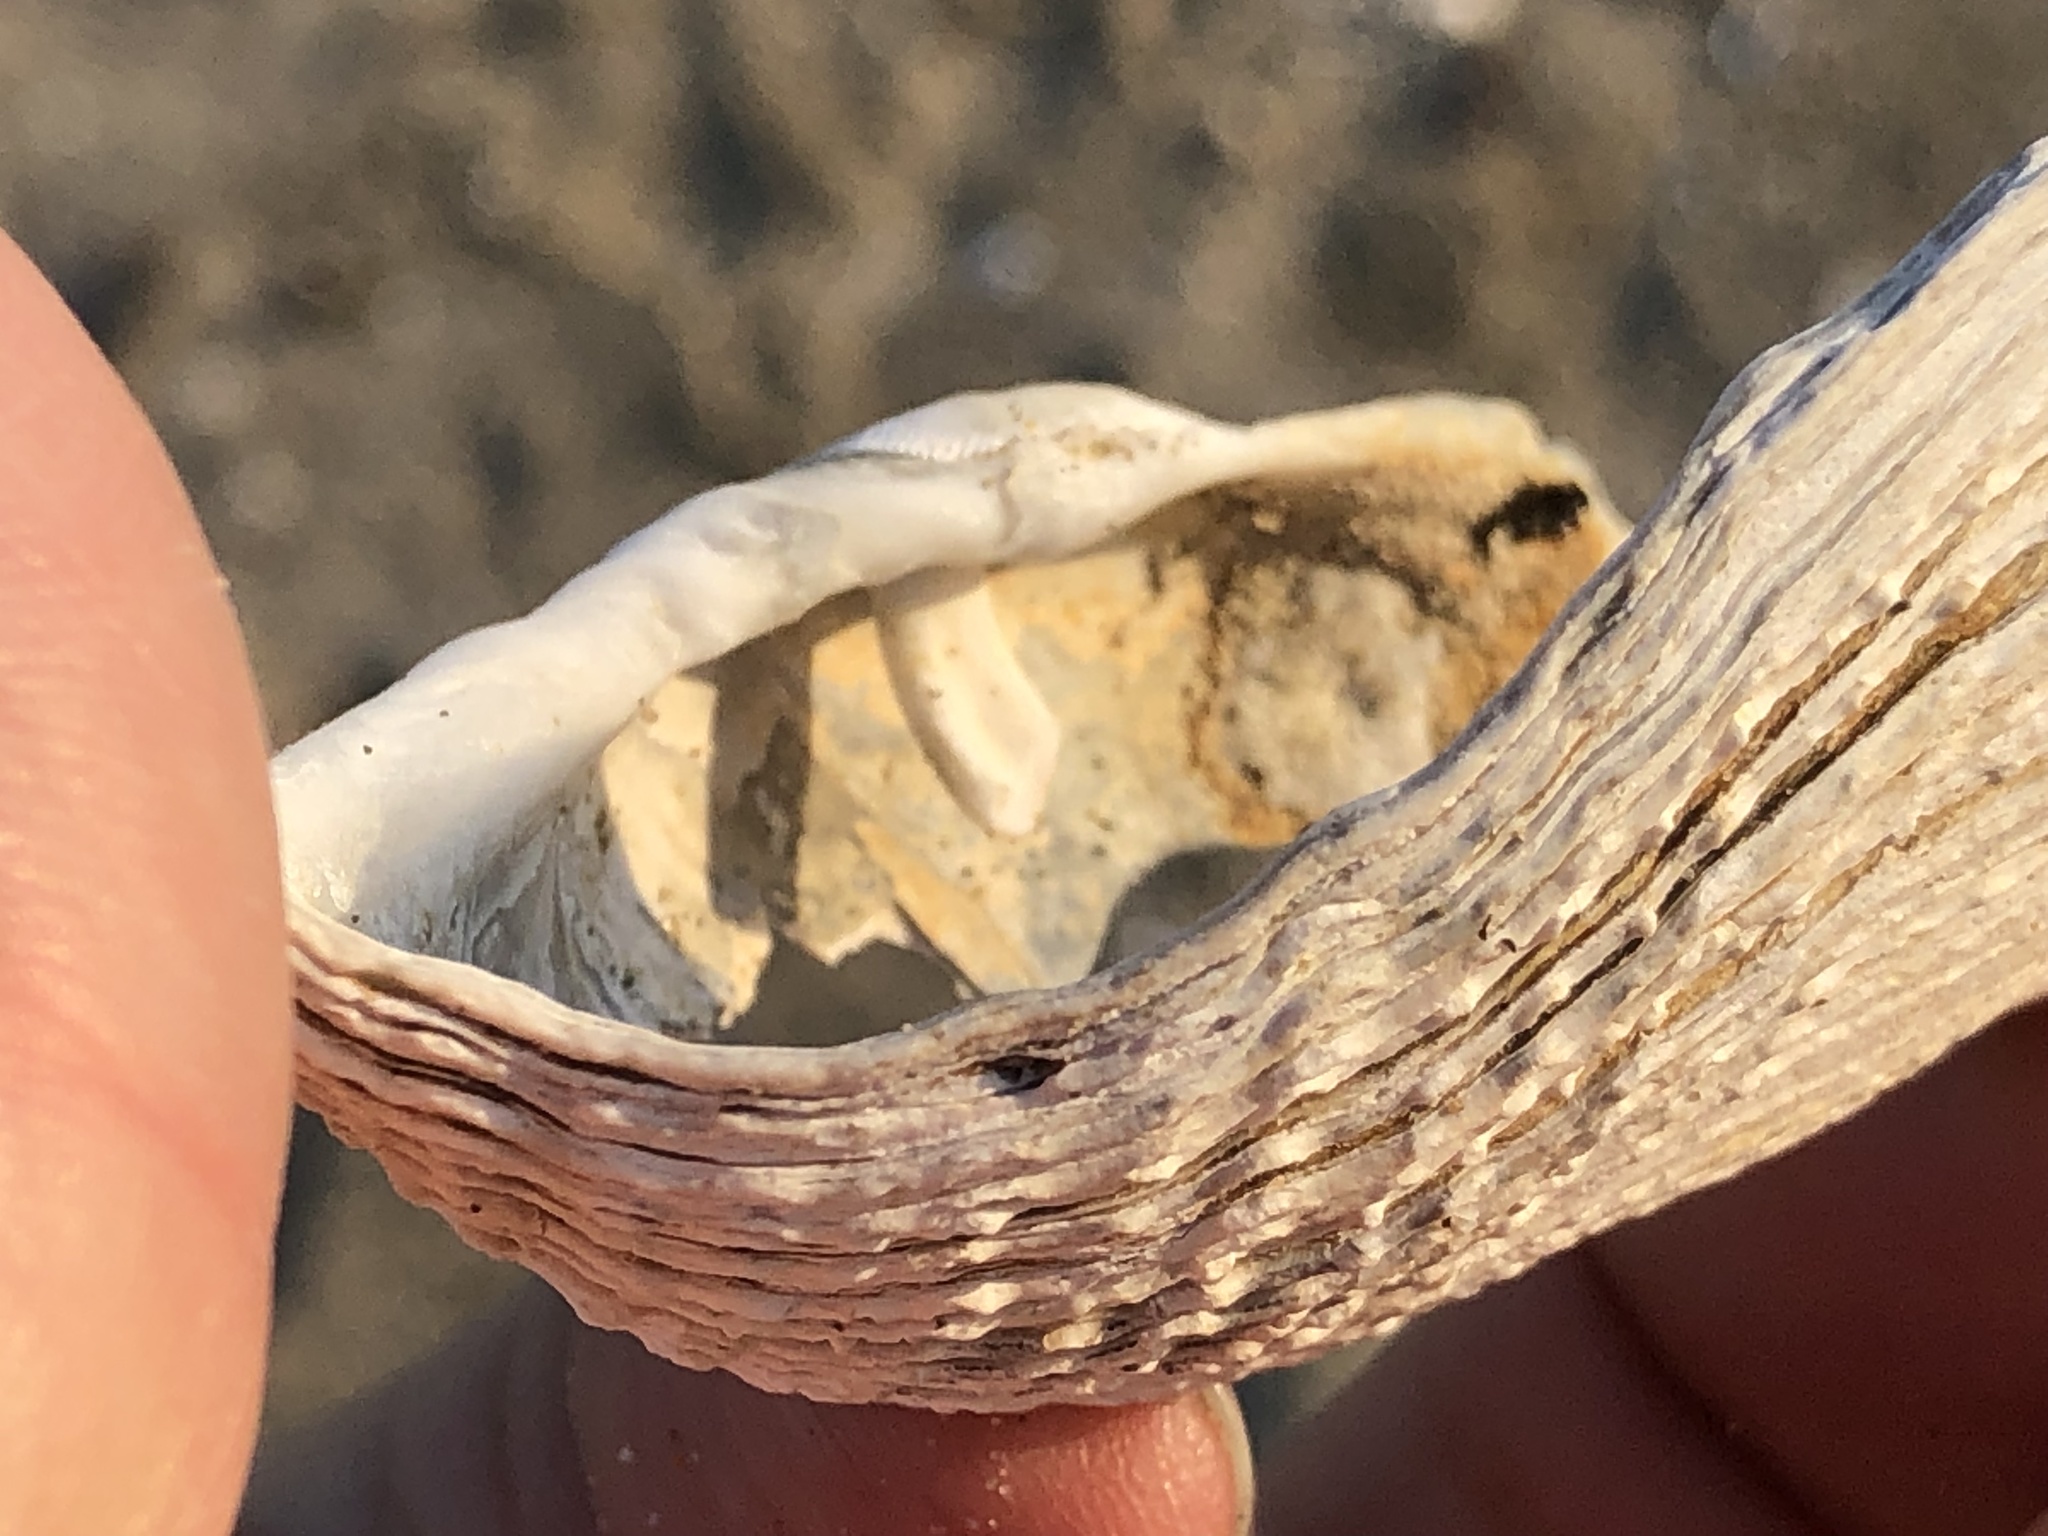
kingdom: Animalia
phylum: Mollusca
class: Bivalvia
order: Myida
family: Pholadidae
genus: Zirfaea
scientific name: Zirfaea pilsbryi
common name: Rough piddock
